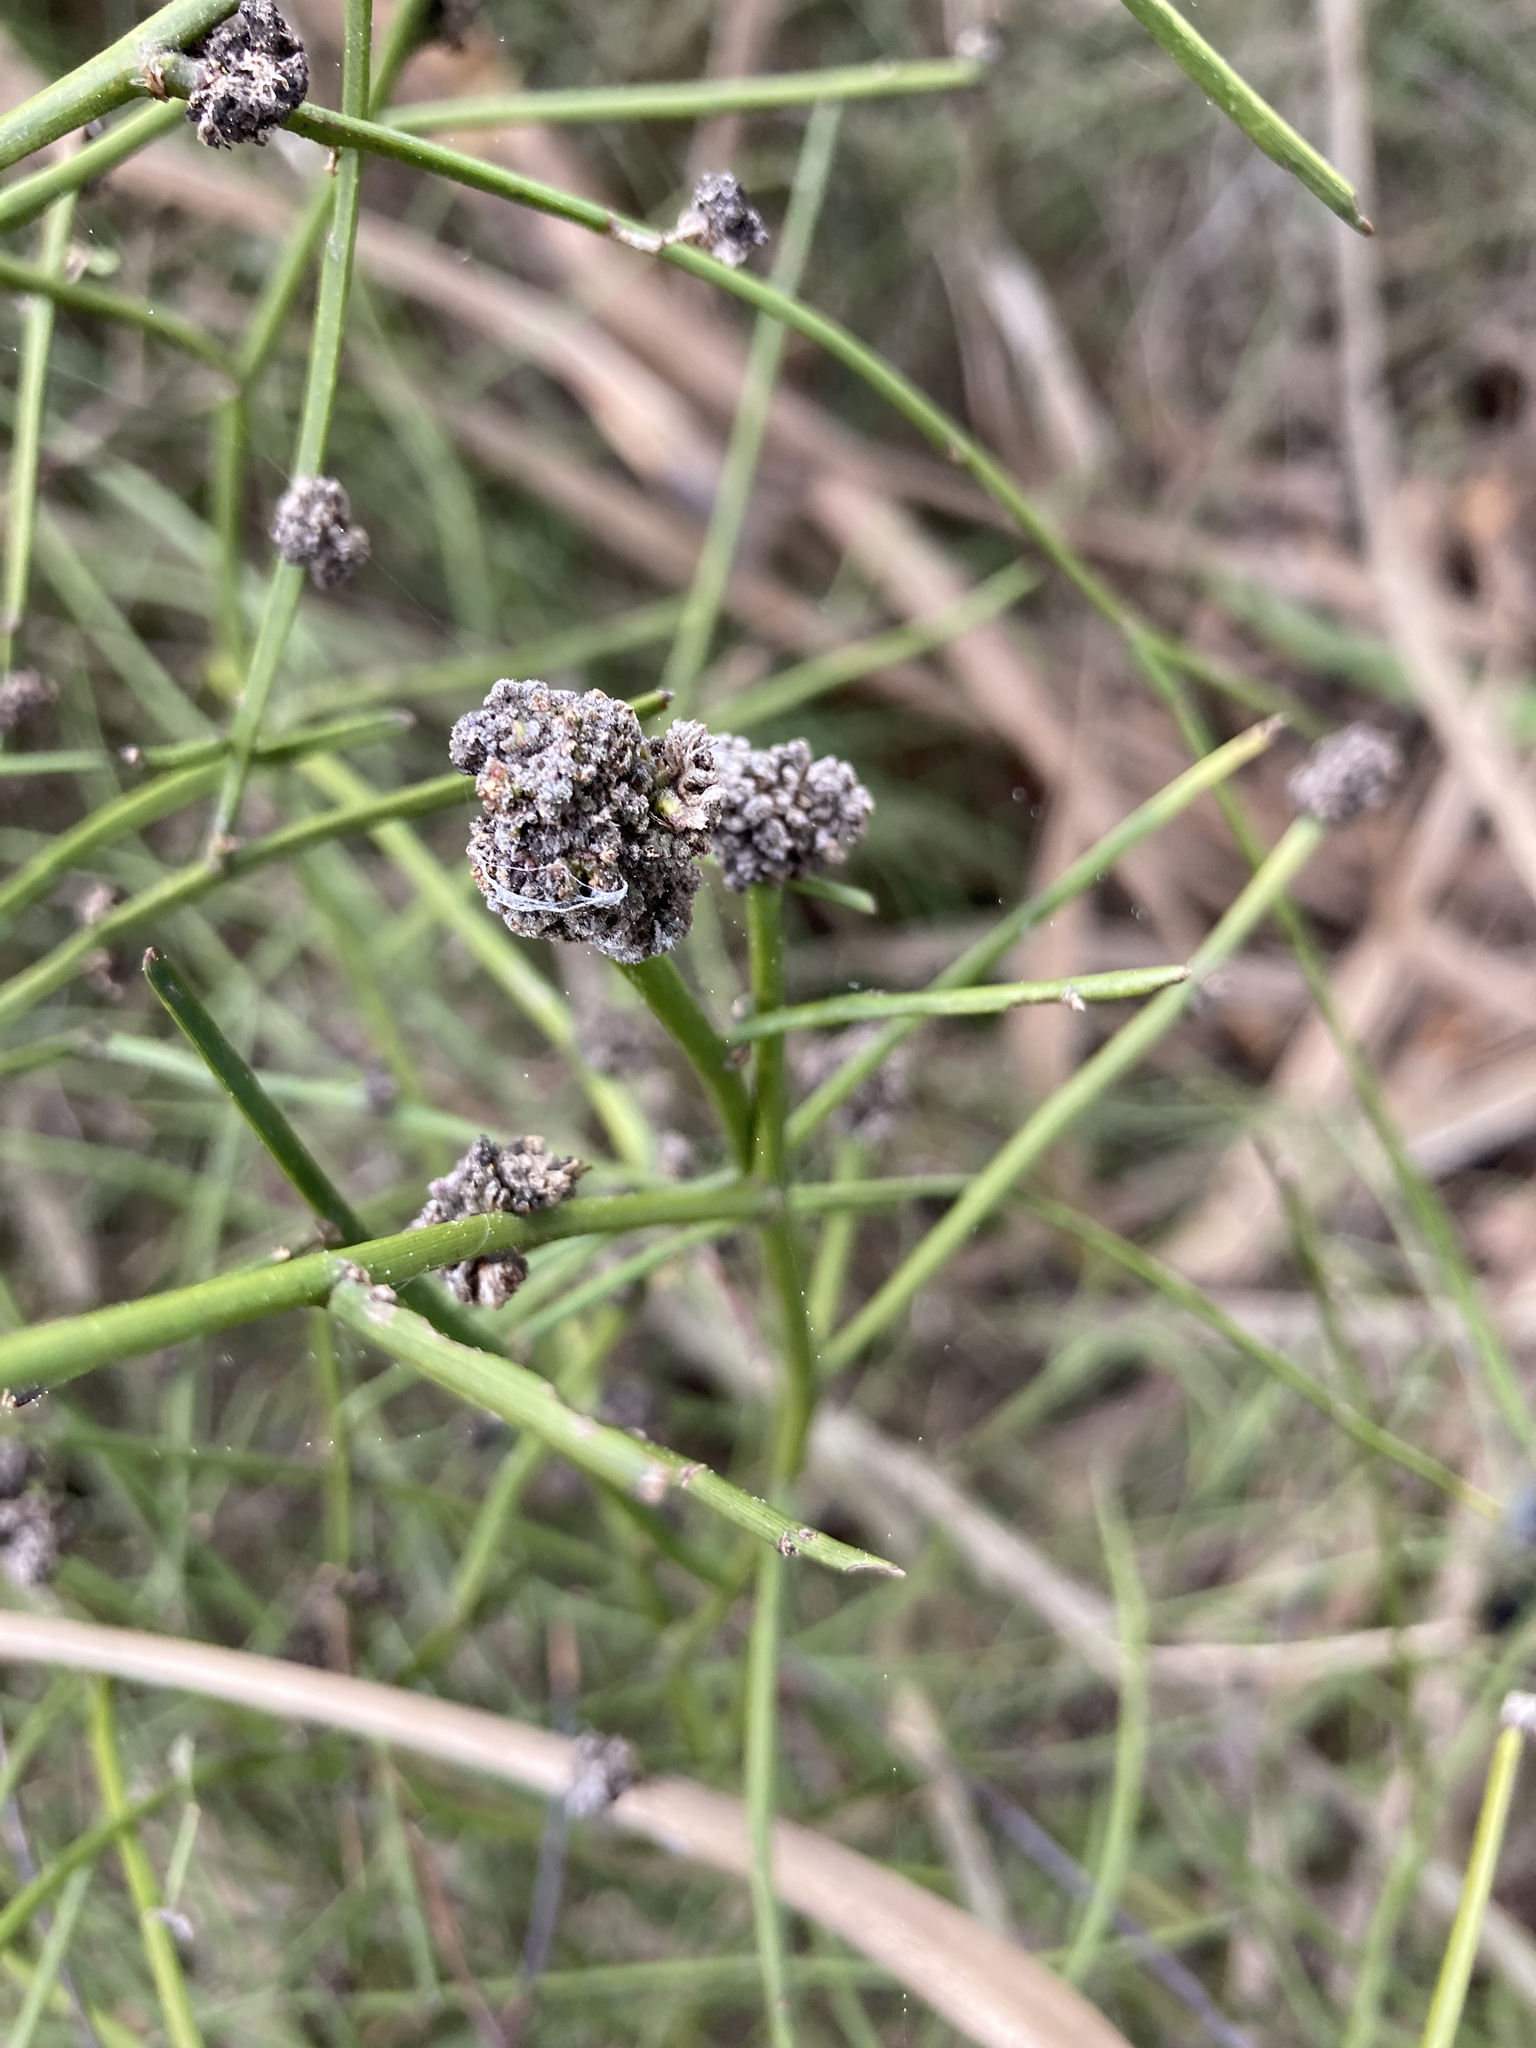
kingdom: Animalia
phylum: Arthropoda
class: Arachnida
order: Trombidiformes
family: Eriophyidae
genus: Aceria
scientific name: Aceria genistae
